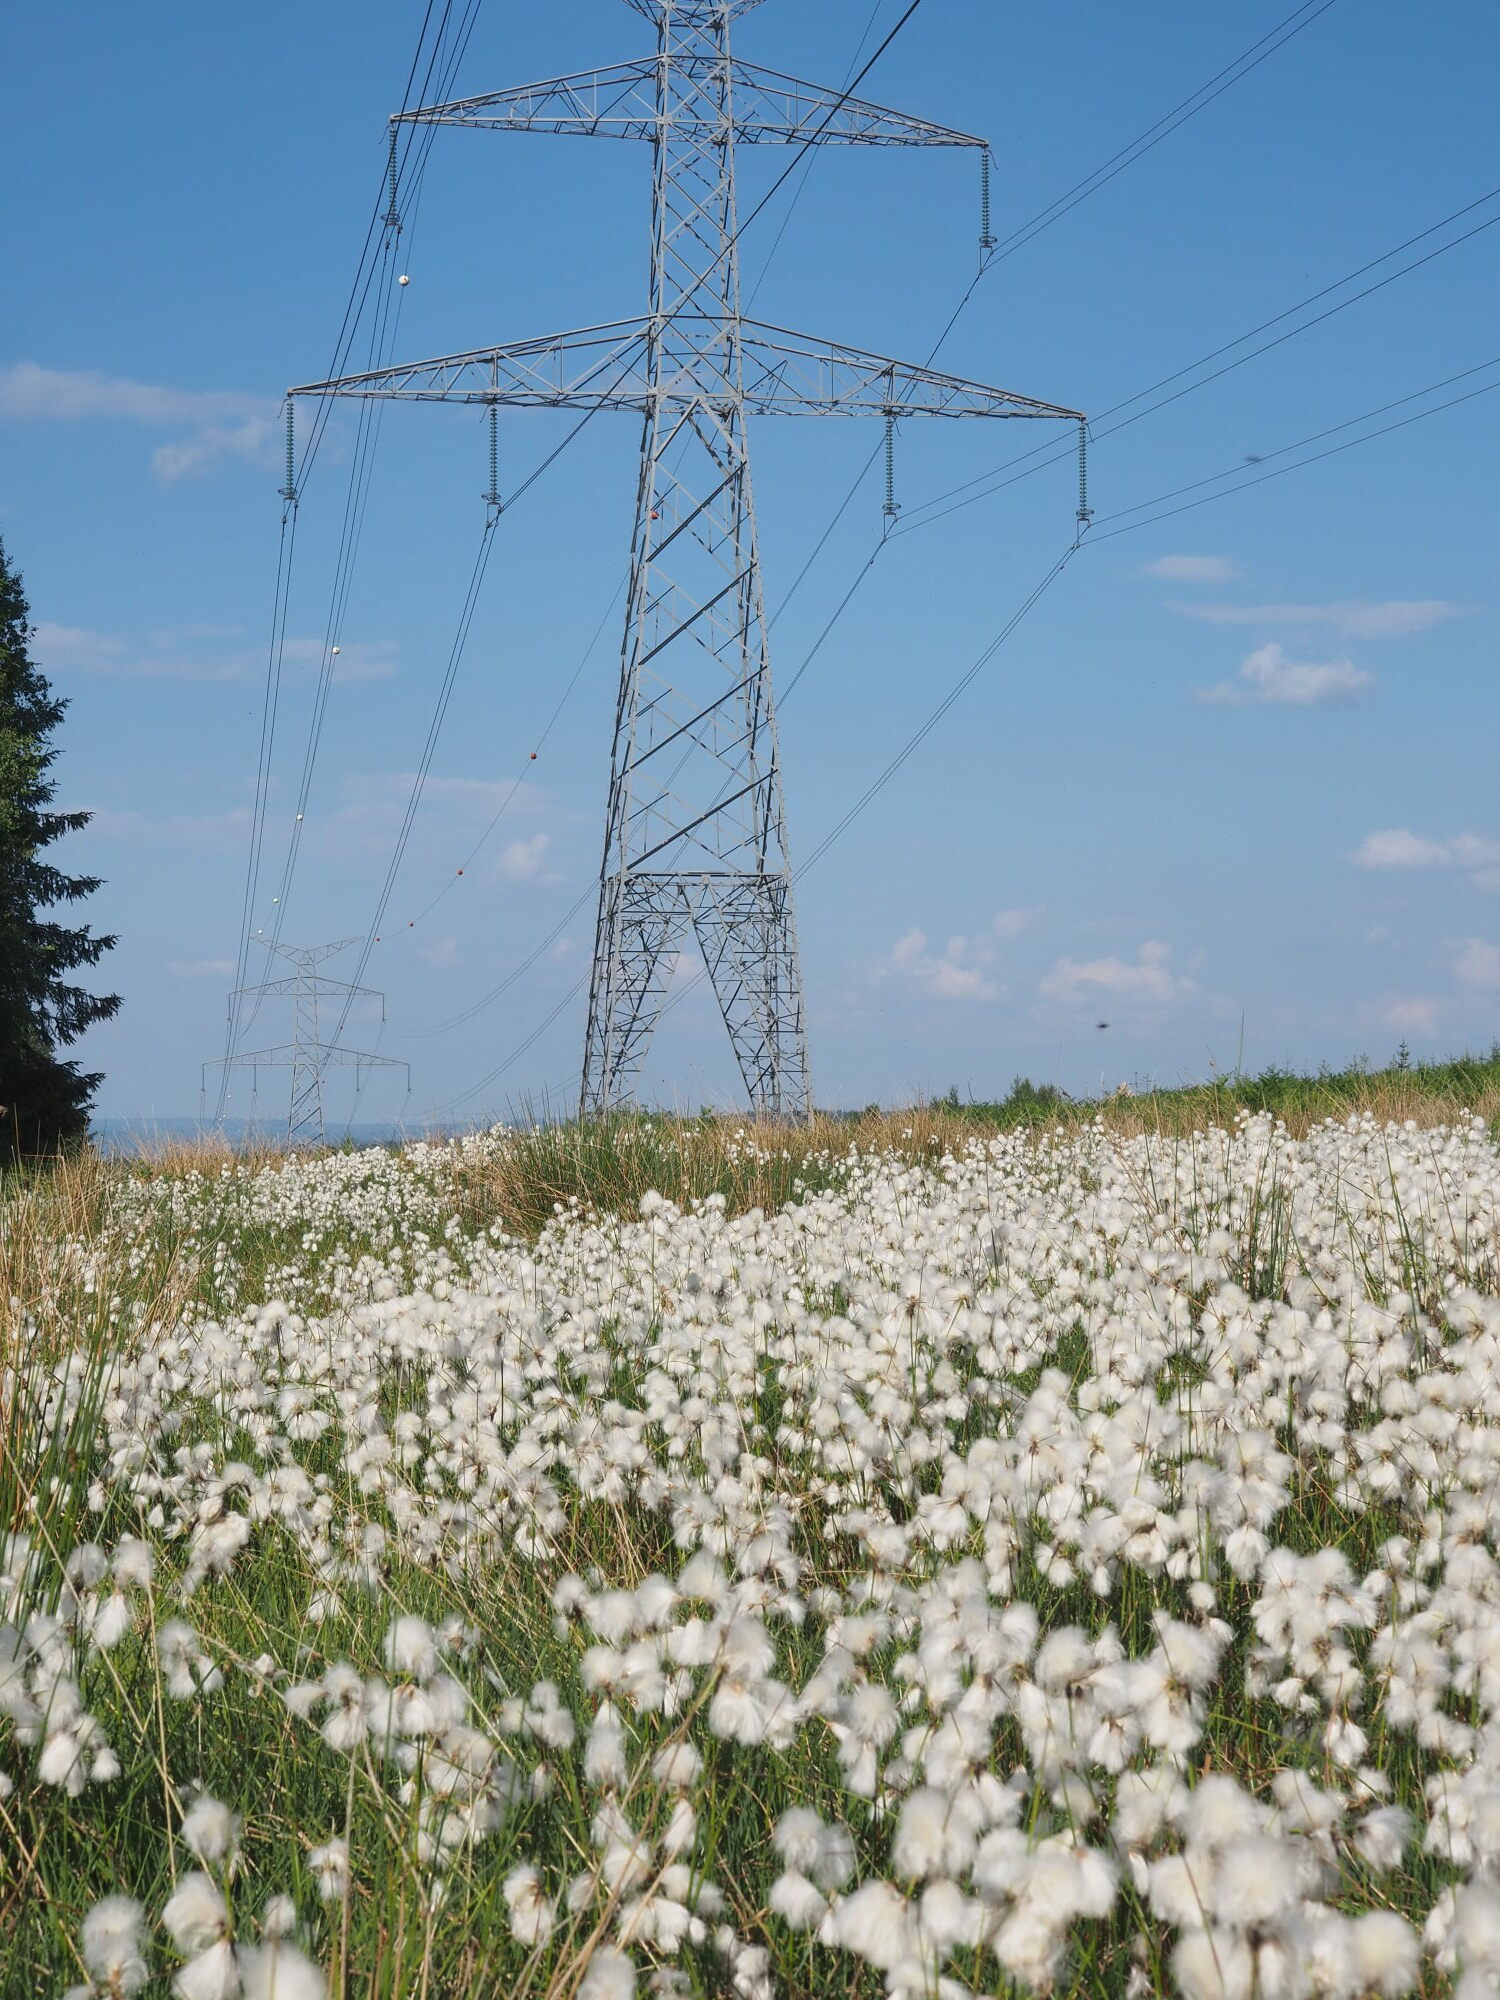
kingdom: Plantae
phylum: Tracheophyta
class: Liliopsida
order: Poales
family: Cyperaceae
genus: Eriophorum
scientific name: Eriophorum angustifolium
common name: Common cottongrass
